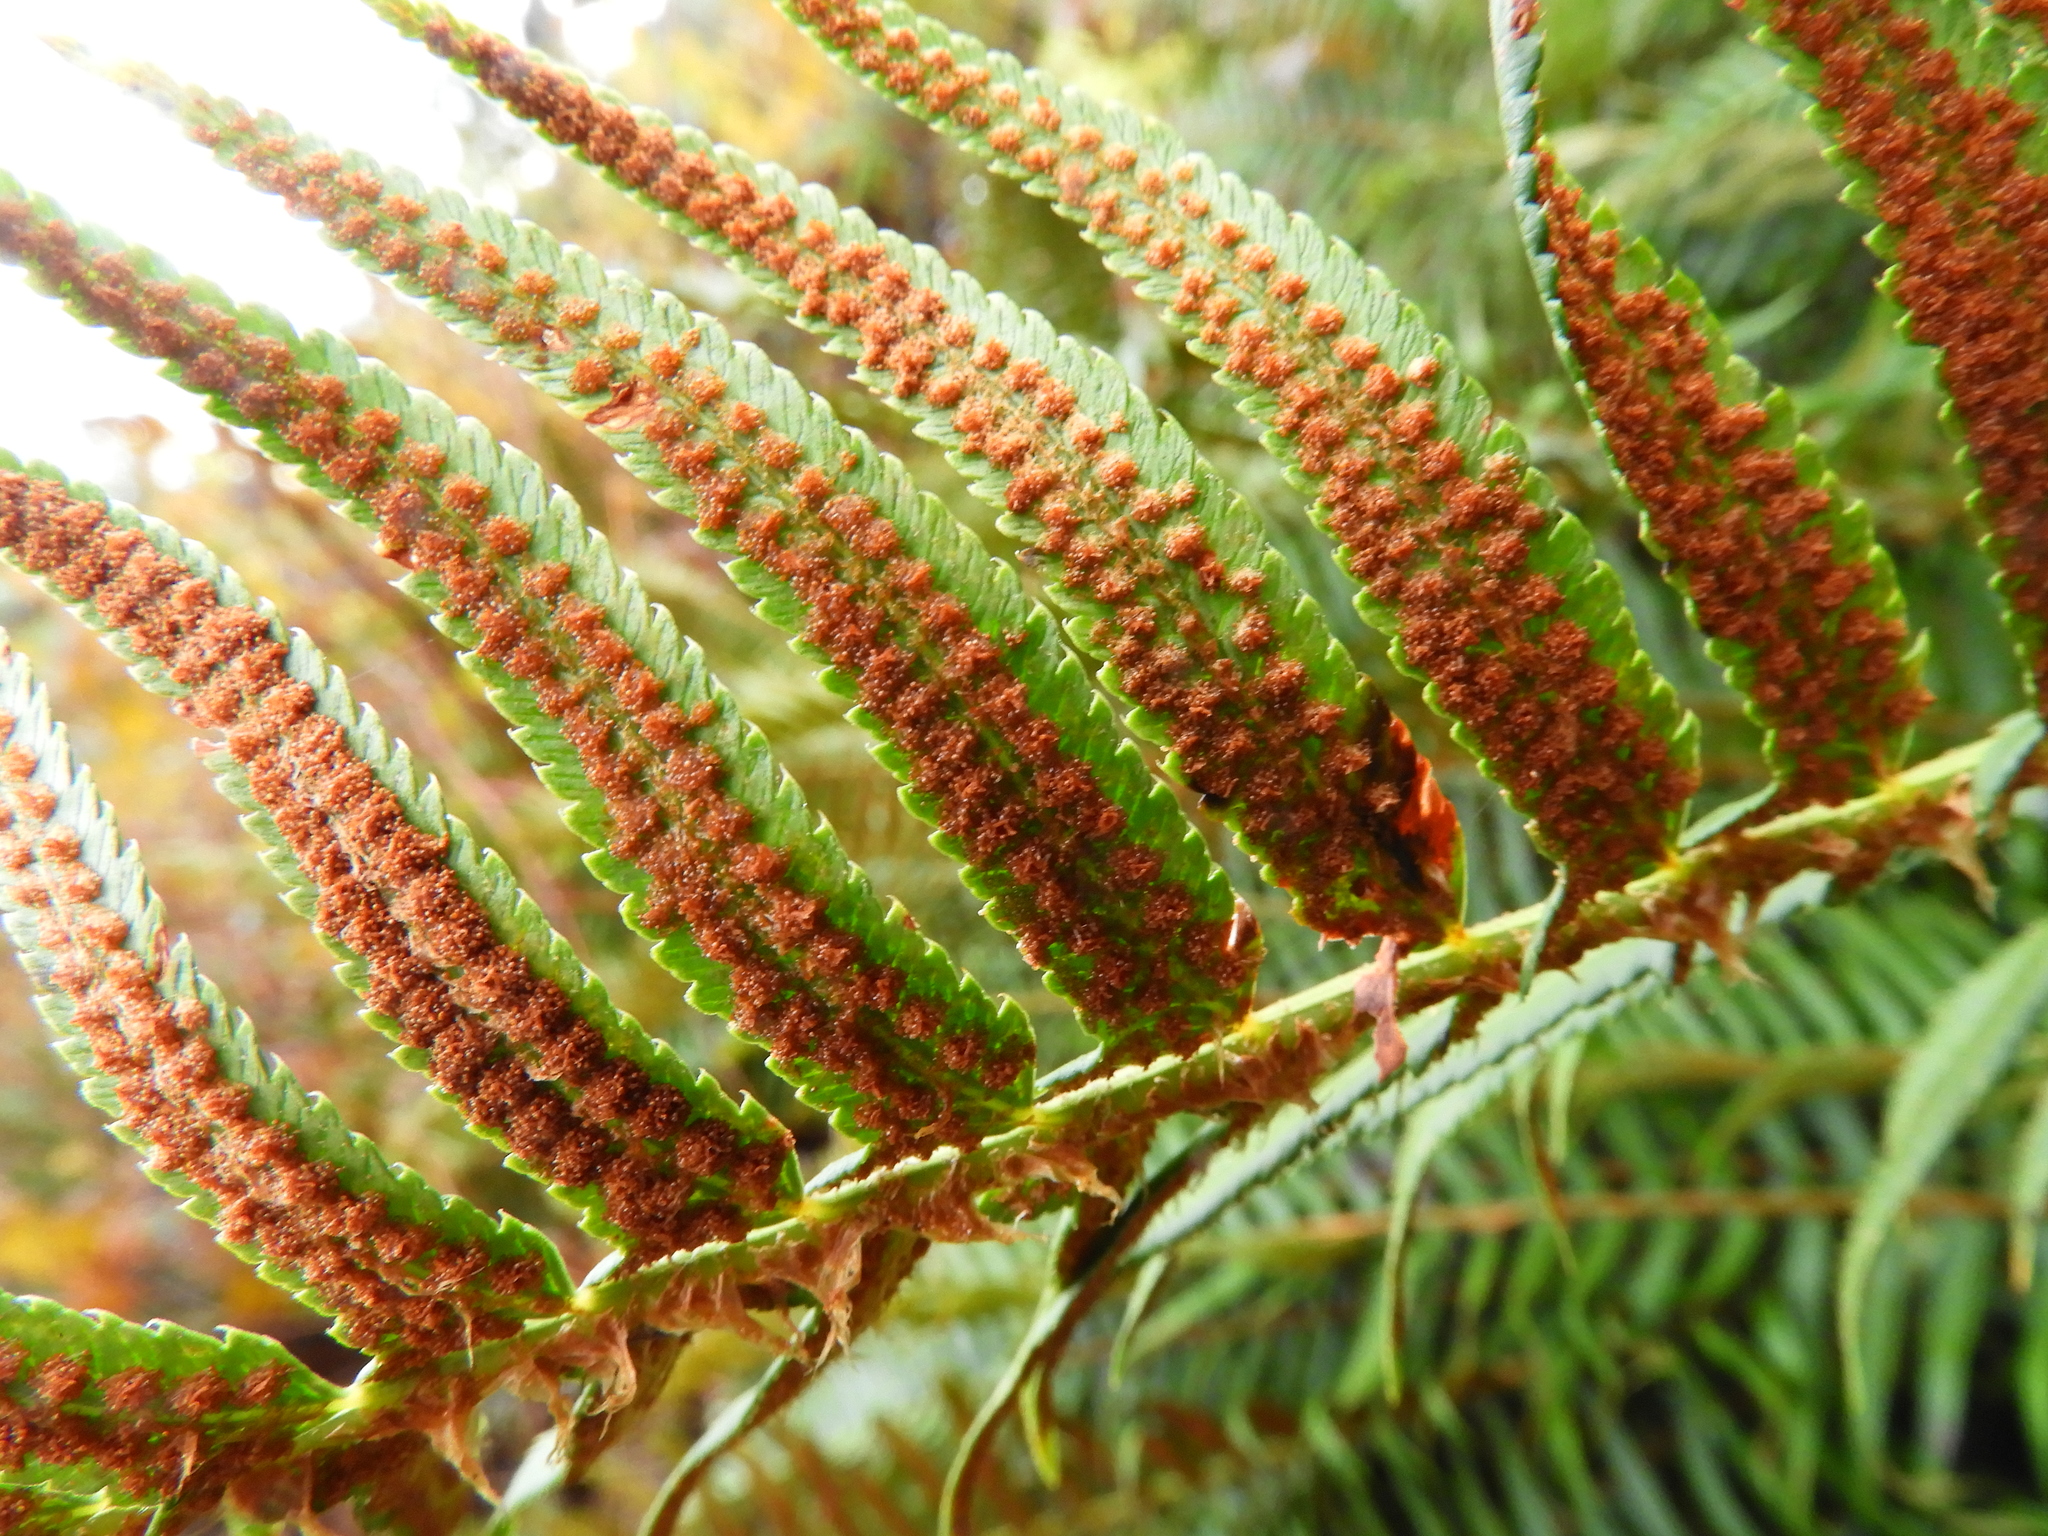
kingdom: Plantae
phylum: Tracheophyta
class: Polypodiopsida
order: Polypodiales
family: Dryopteridaceae
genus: Polystichum
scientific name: Polystichum munitum
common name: Western sword-fern
